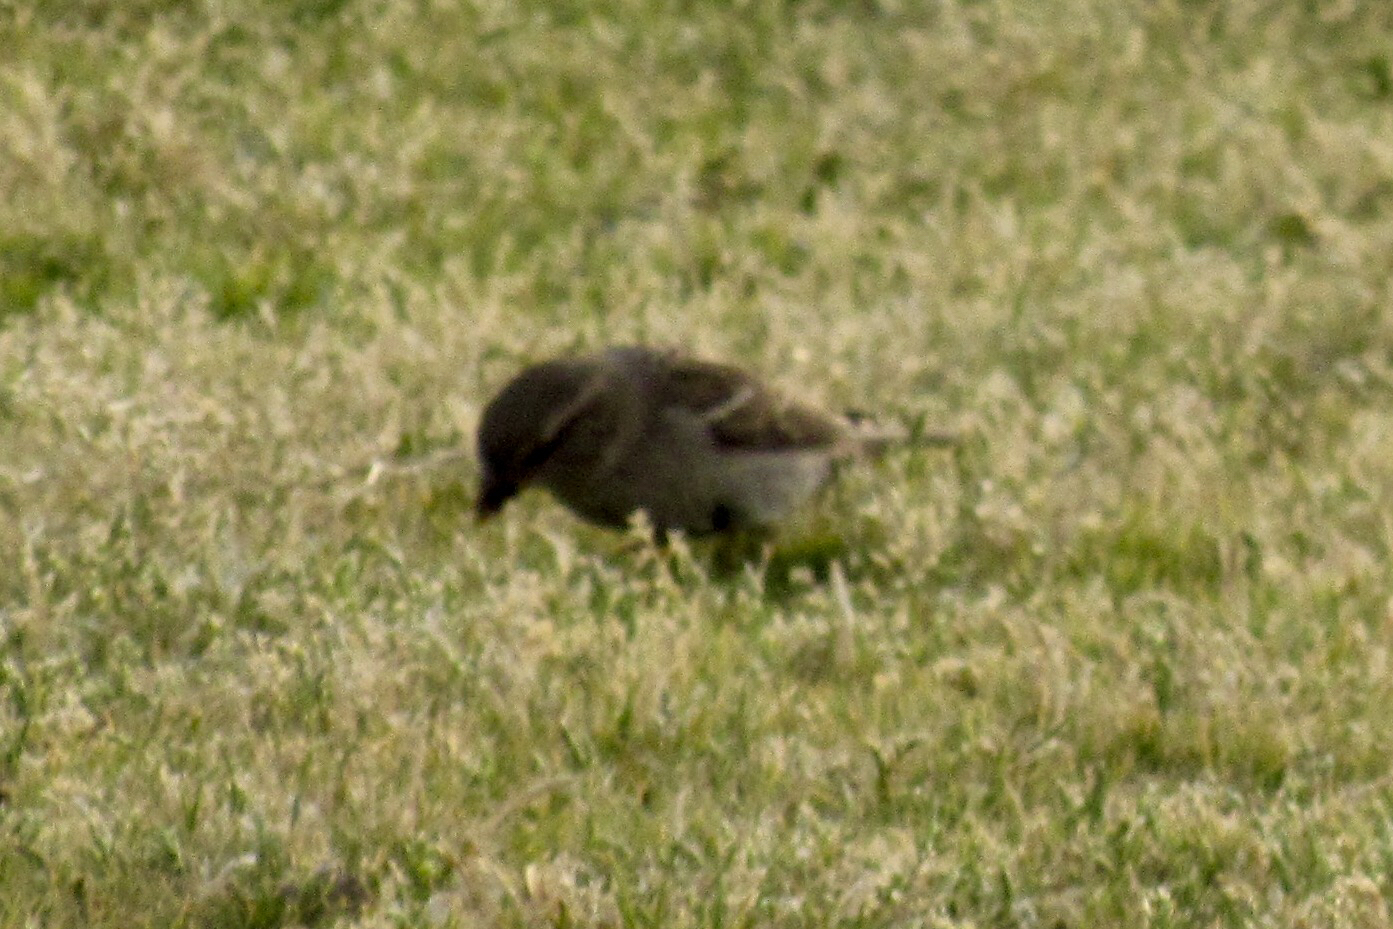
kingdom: Animalia
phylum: Chordata
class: Aves
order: Passeriformes
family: Passeridae
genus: Passer
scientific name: Passer domesticus
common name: House sparrow
